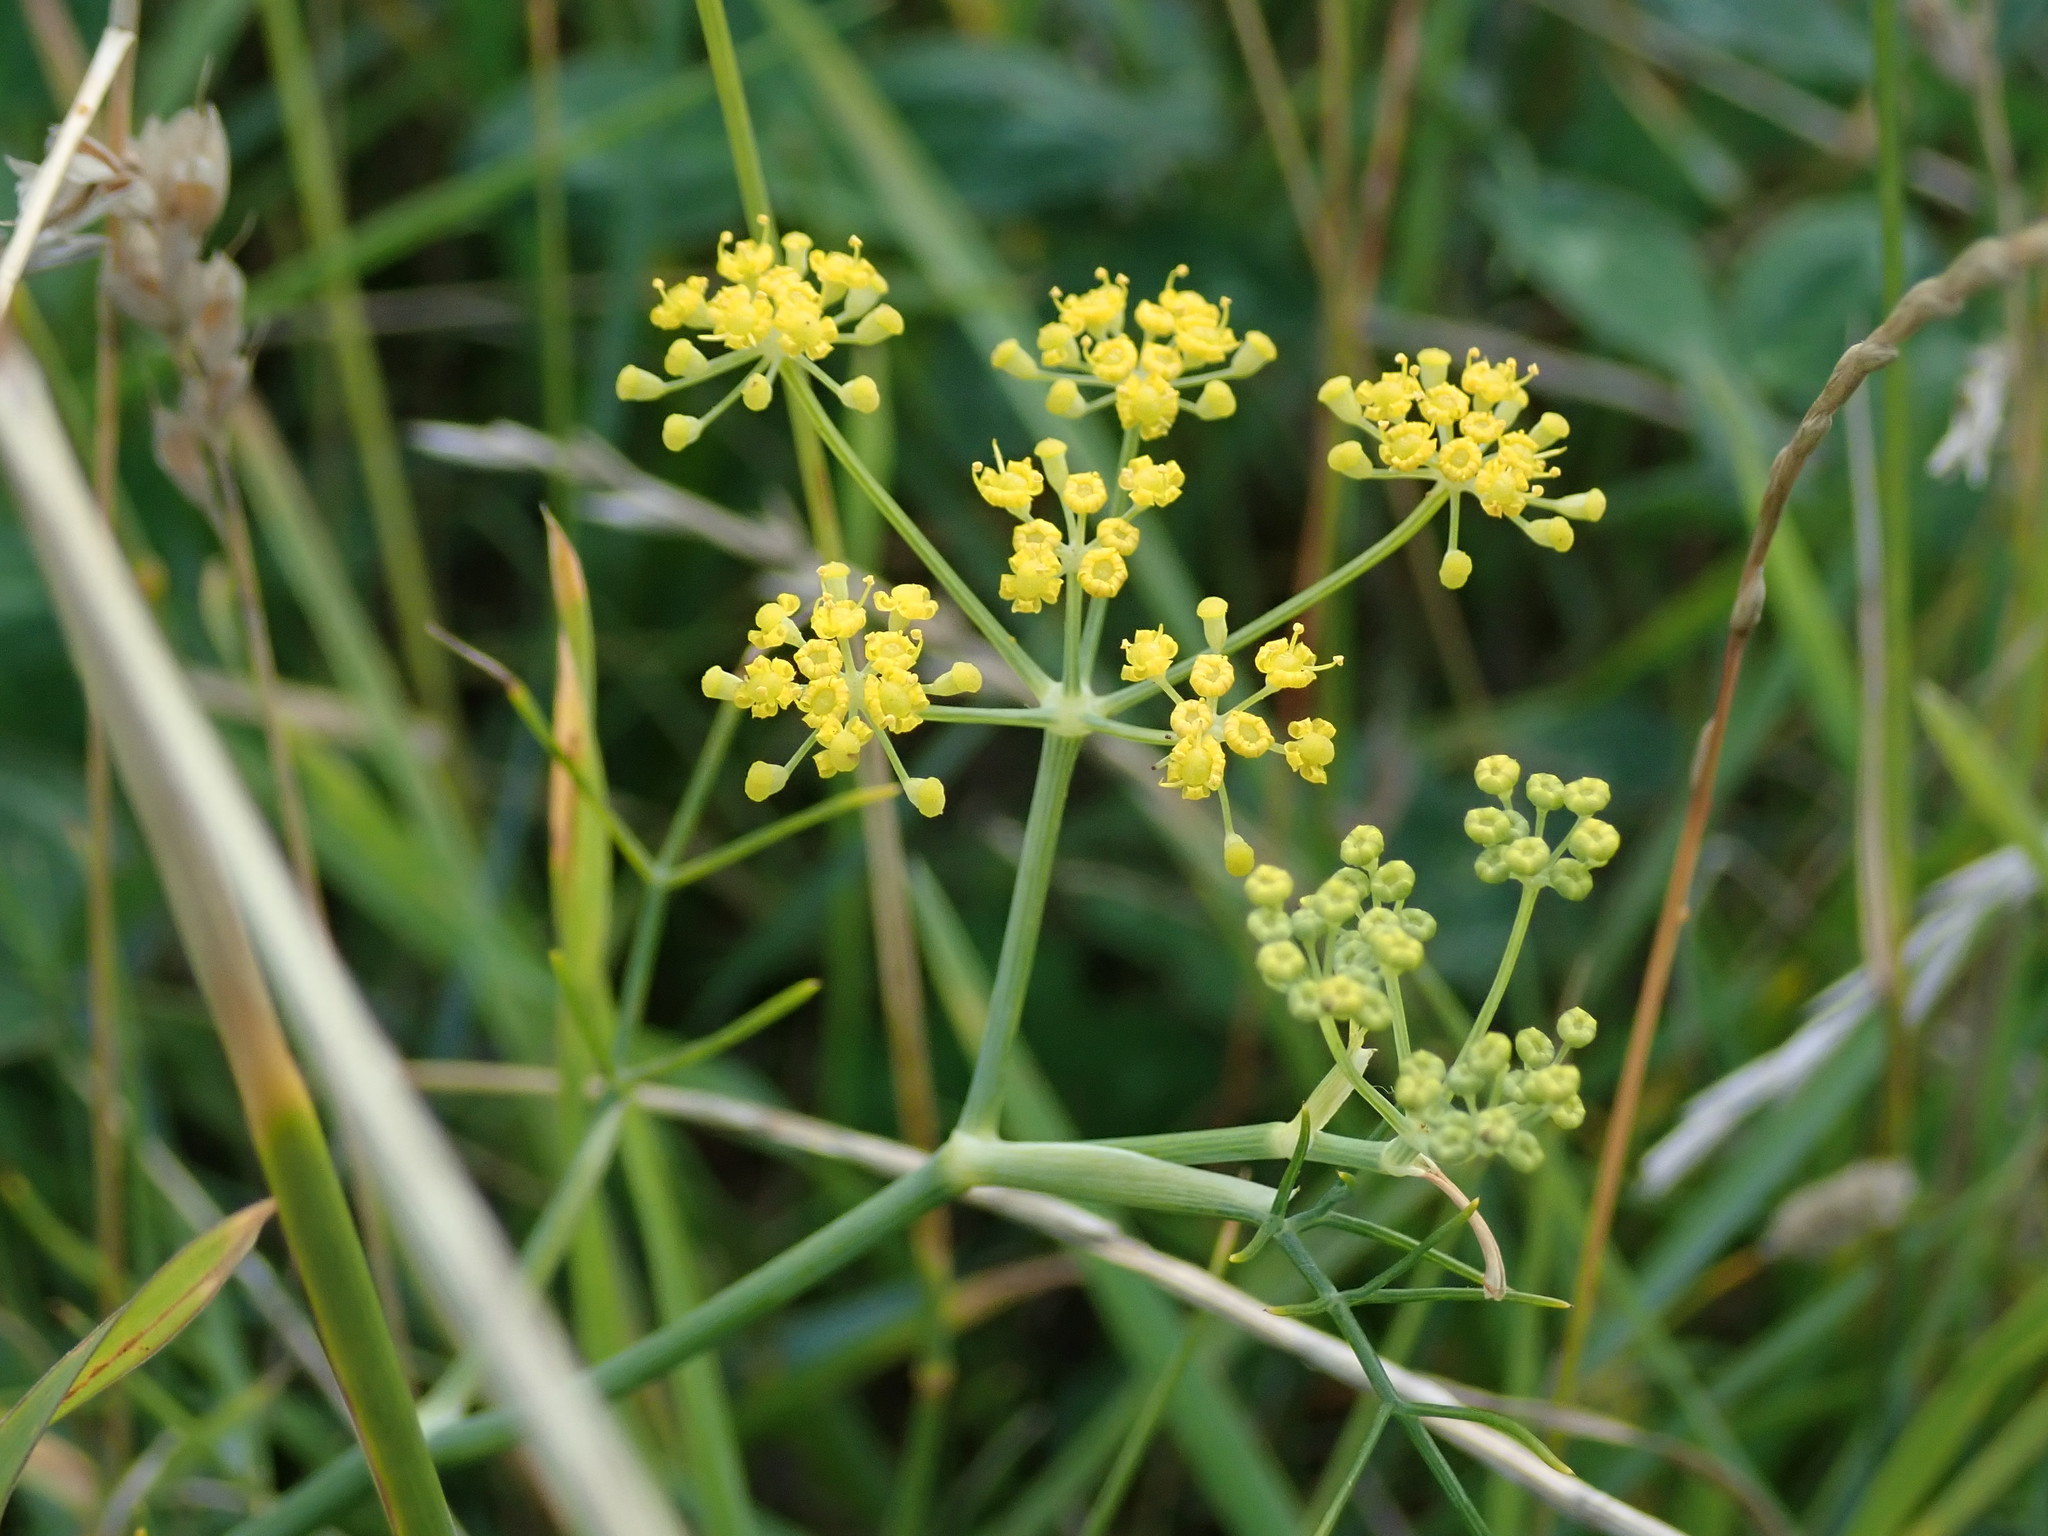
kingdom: Plantae
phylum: Tracheophyta
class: Magnoliopsida
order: Apiales
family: Apiaceae
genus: Foeniculum
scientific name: Foeniculum vulgare
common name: Fennel
